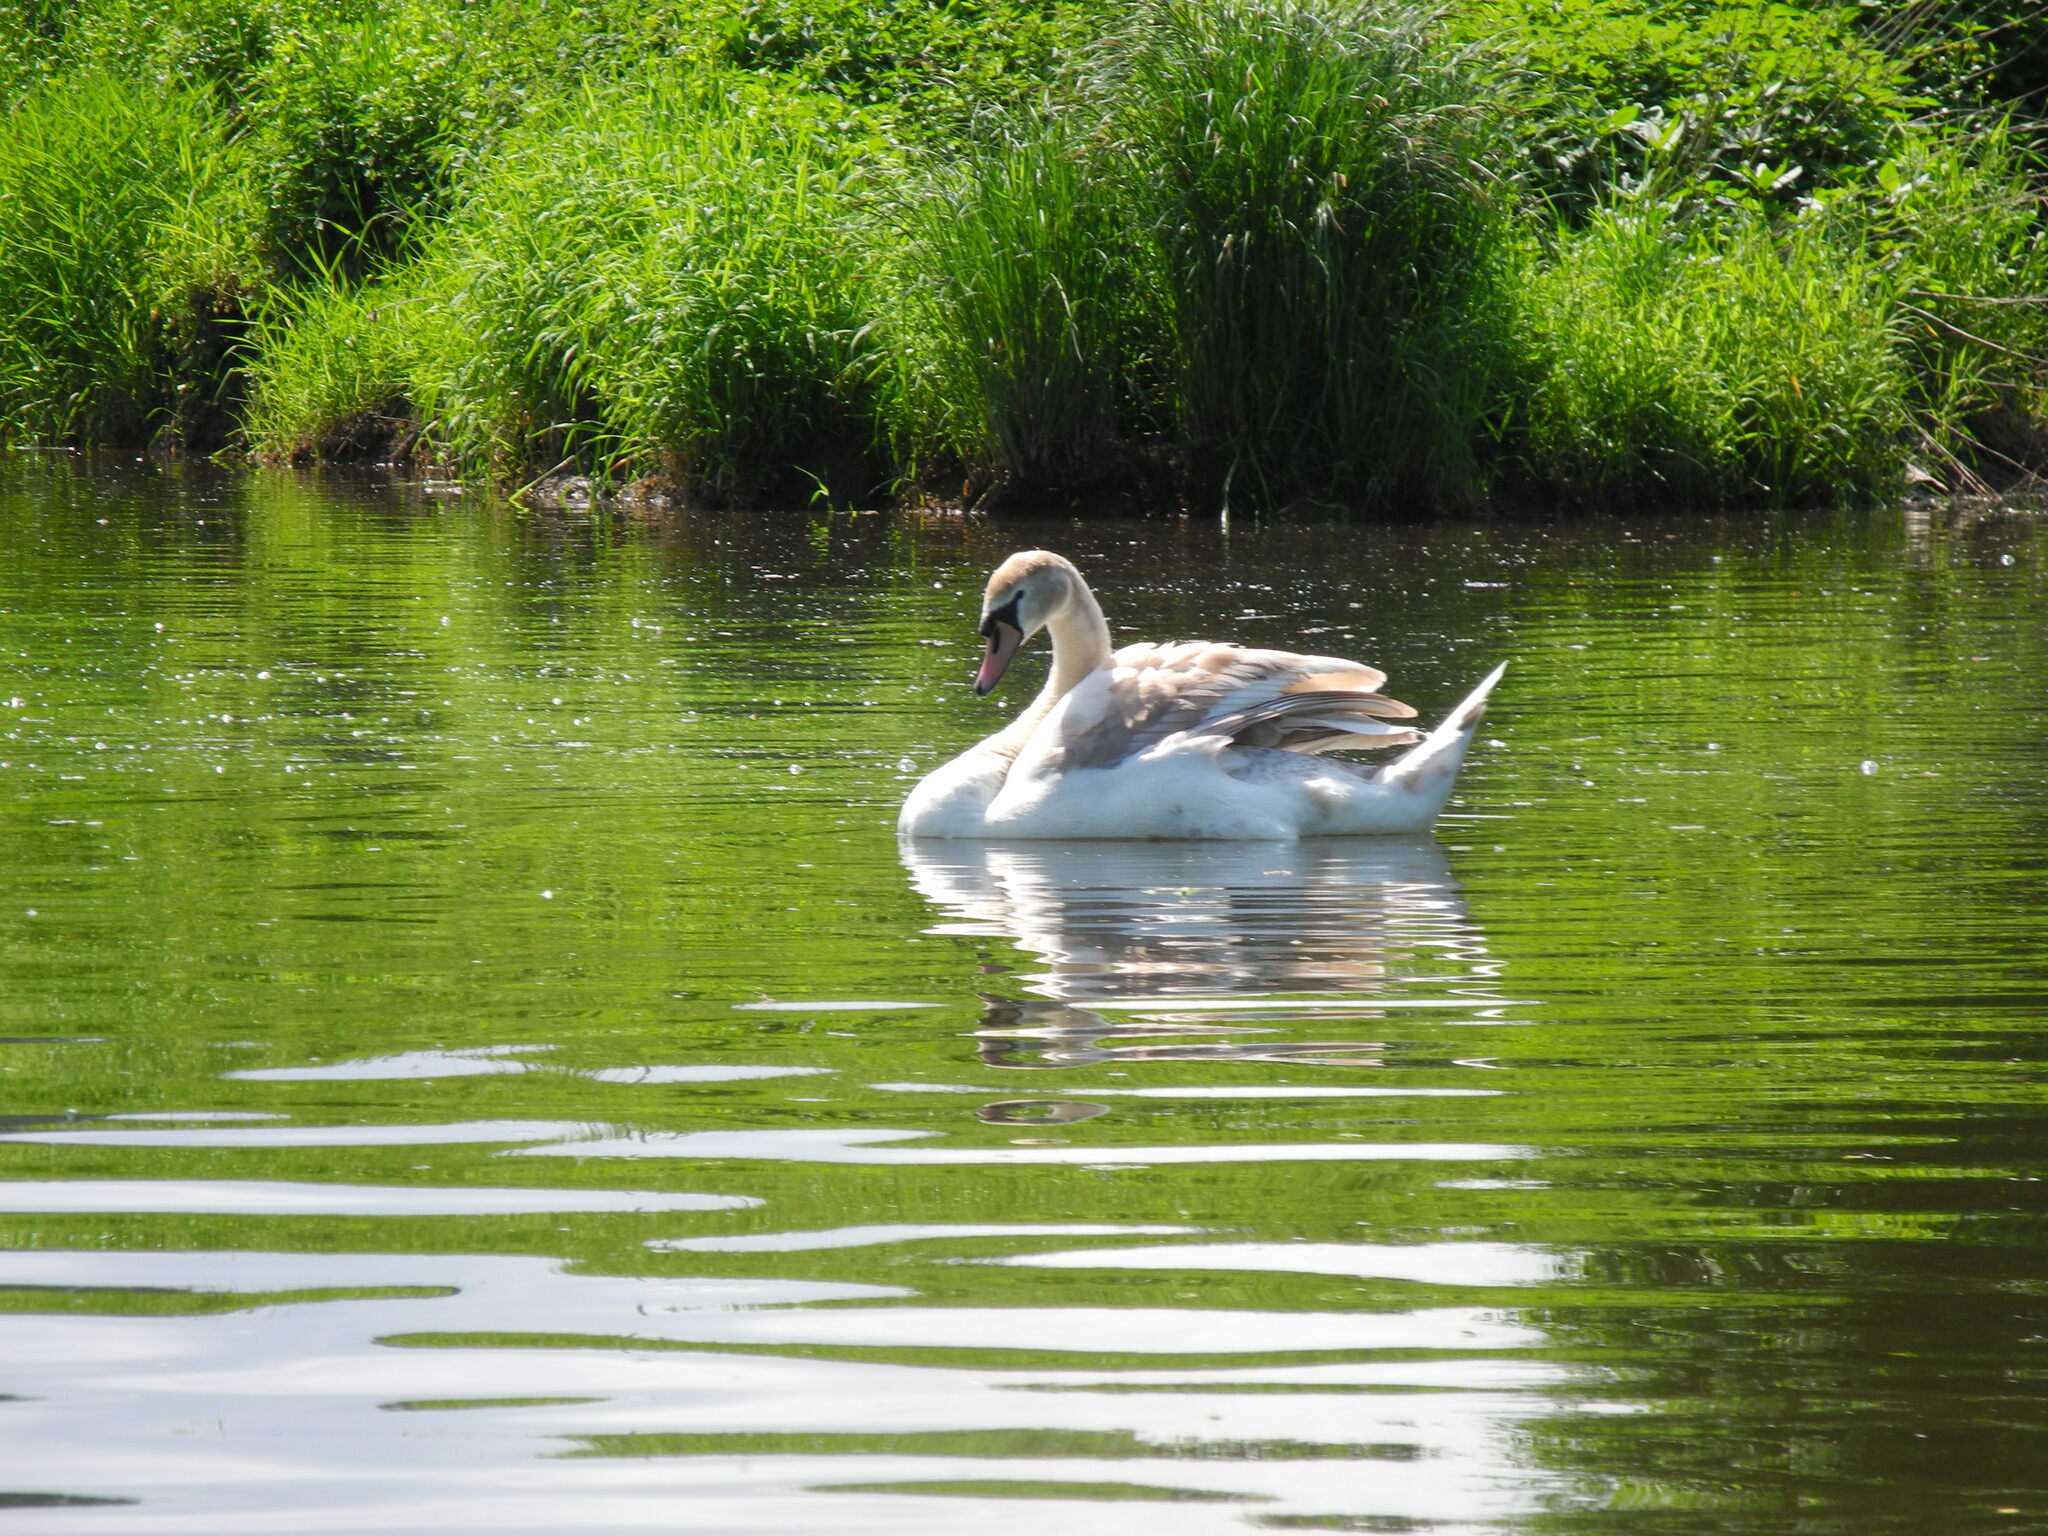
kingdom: Animalia
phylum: Chordata
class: Aves
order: Anseriformes
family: Anatidae
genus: Cygnus
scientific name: Cygnus olor
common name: Mute swan
